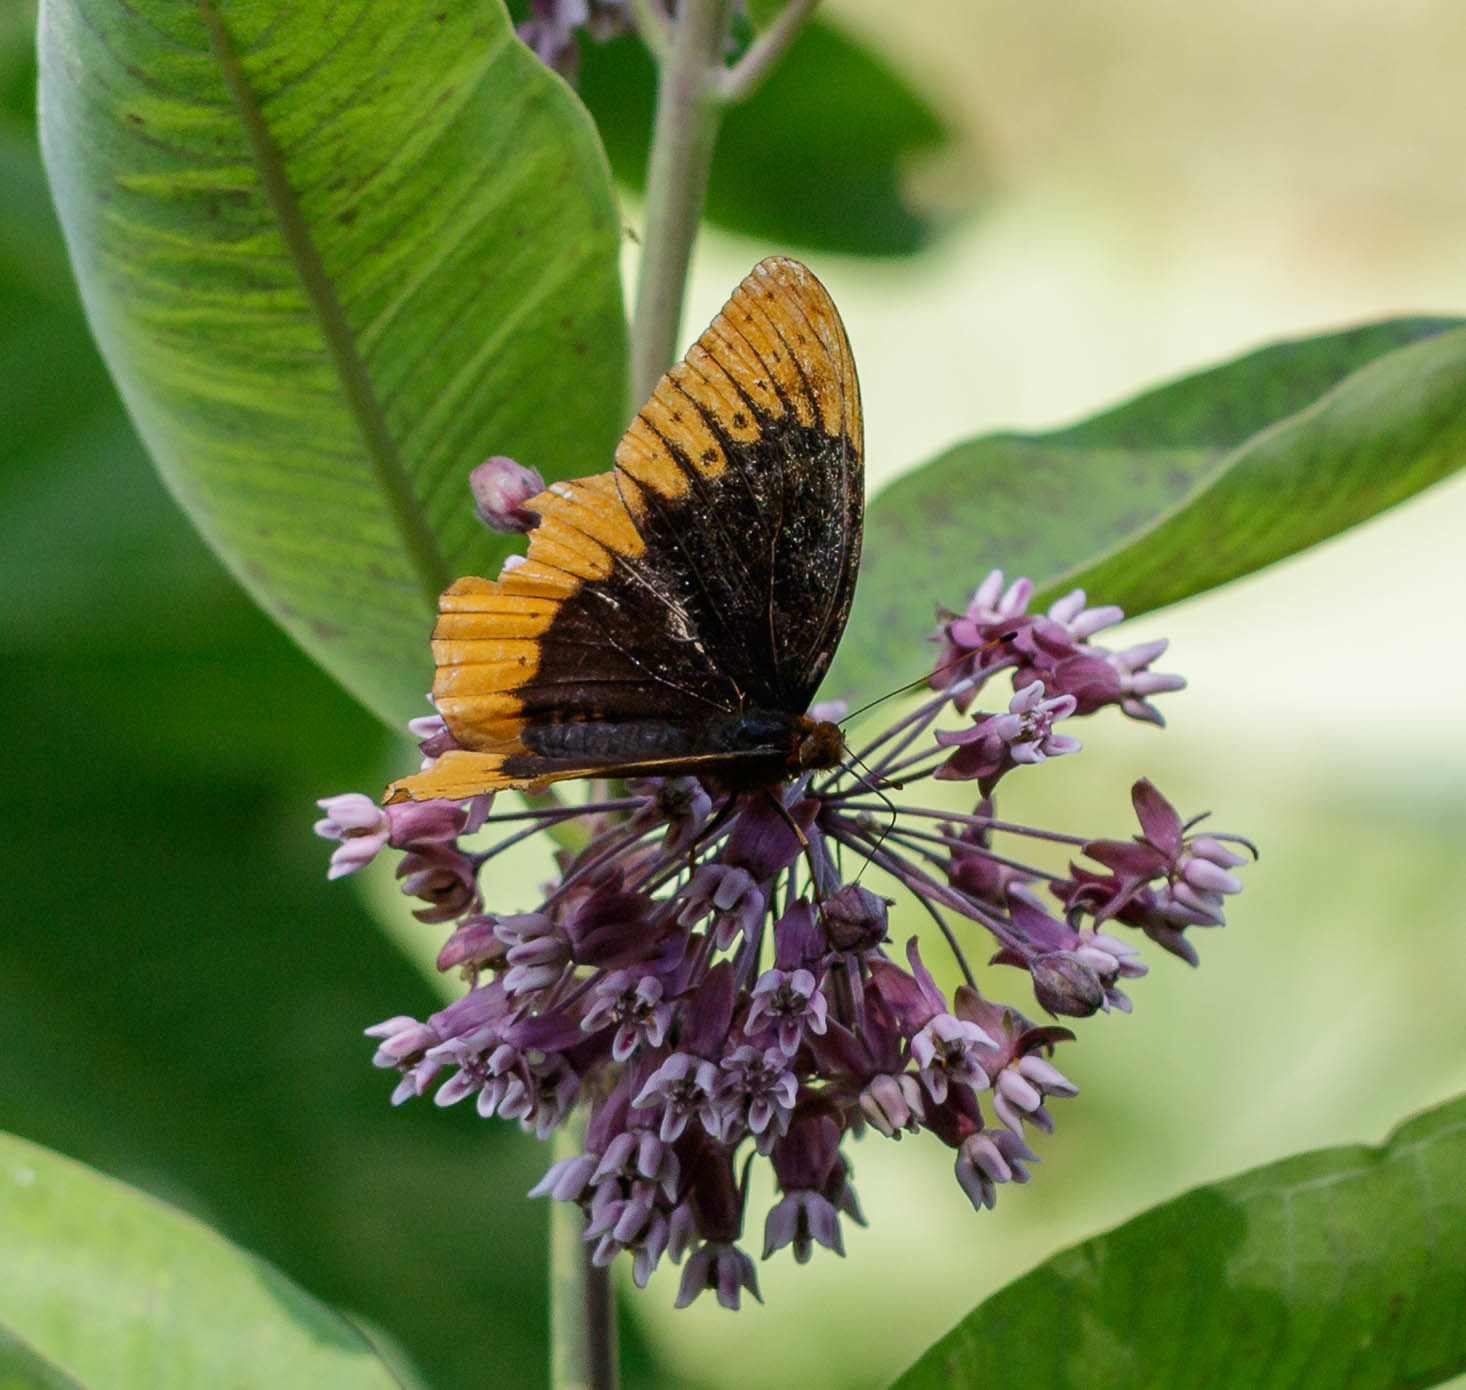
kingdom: Animalia
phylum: Arthropoda
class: Insecta
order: Lepidoptera
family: Nymphalidae
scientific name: Nymphalidae
